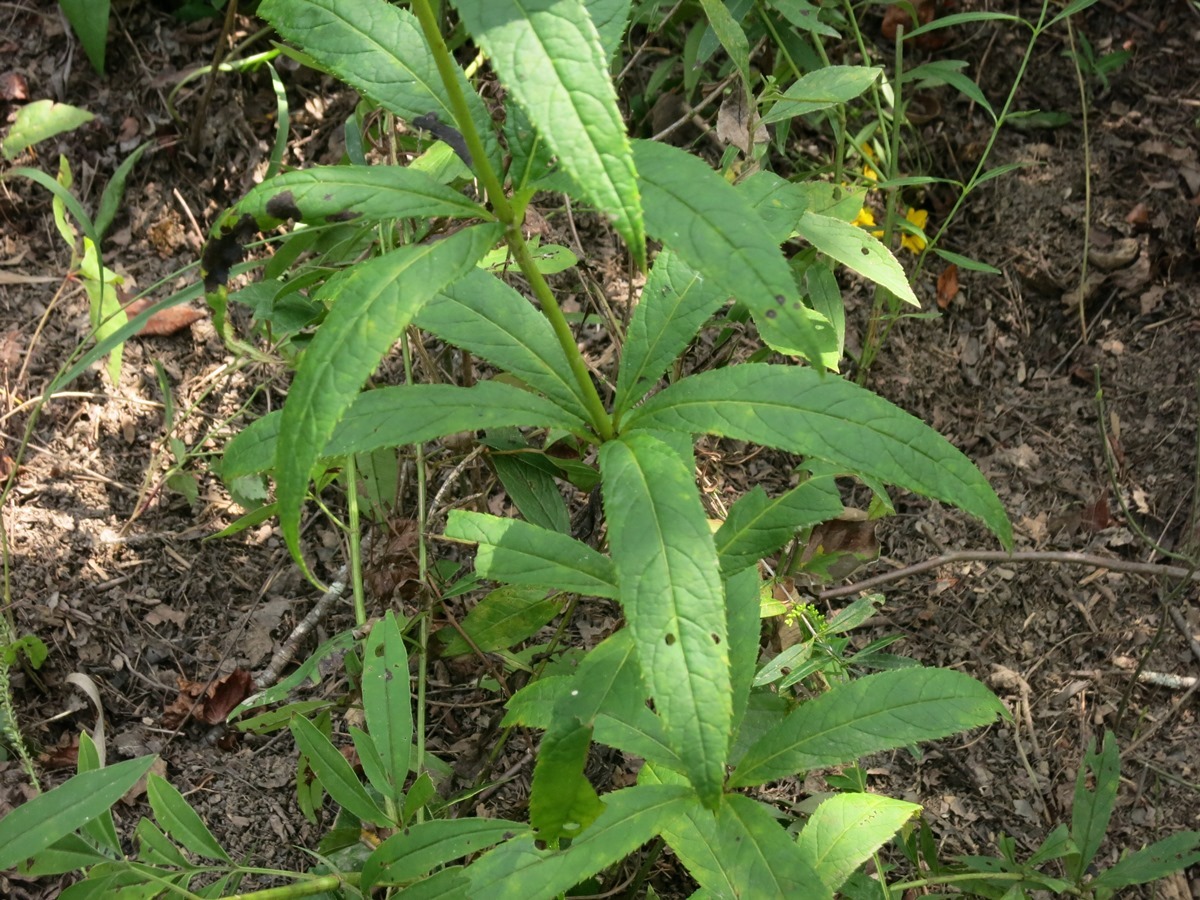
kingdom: Plantae
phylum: Tracheophyta
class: Magnoliopsida
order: Lamiales
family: Plantaginaceae
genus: Veronicastrum
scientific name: Veronicastrum virginicum
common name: Blackroot
